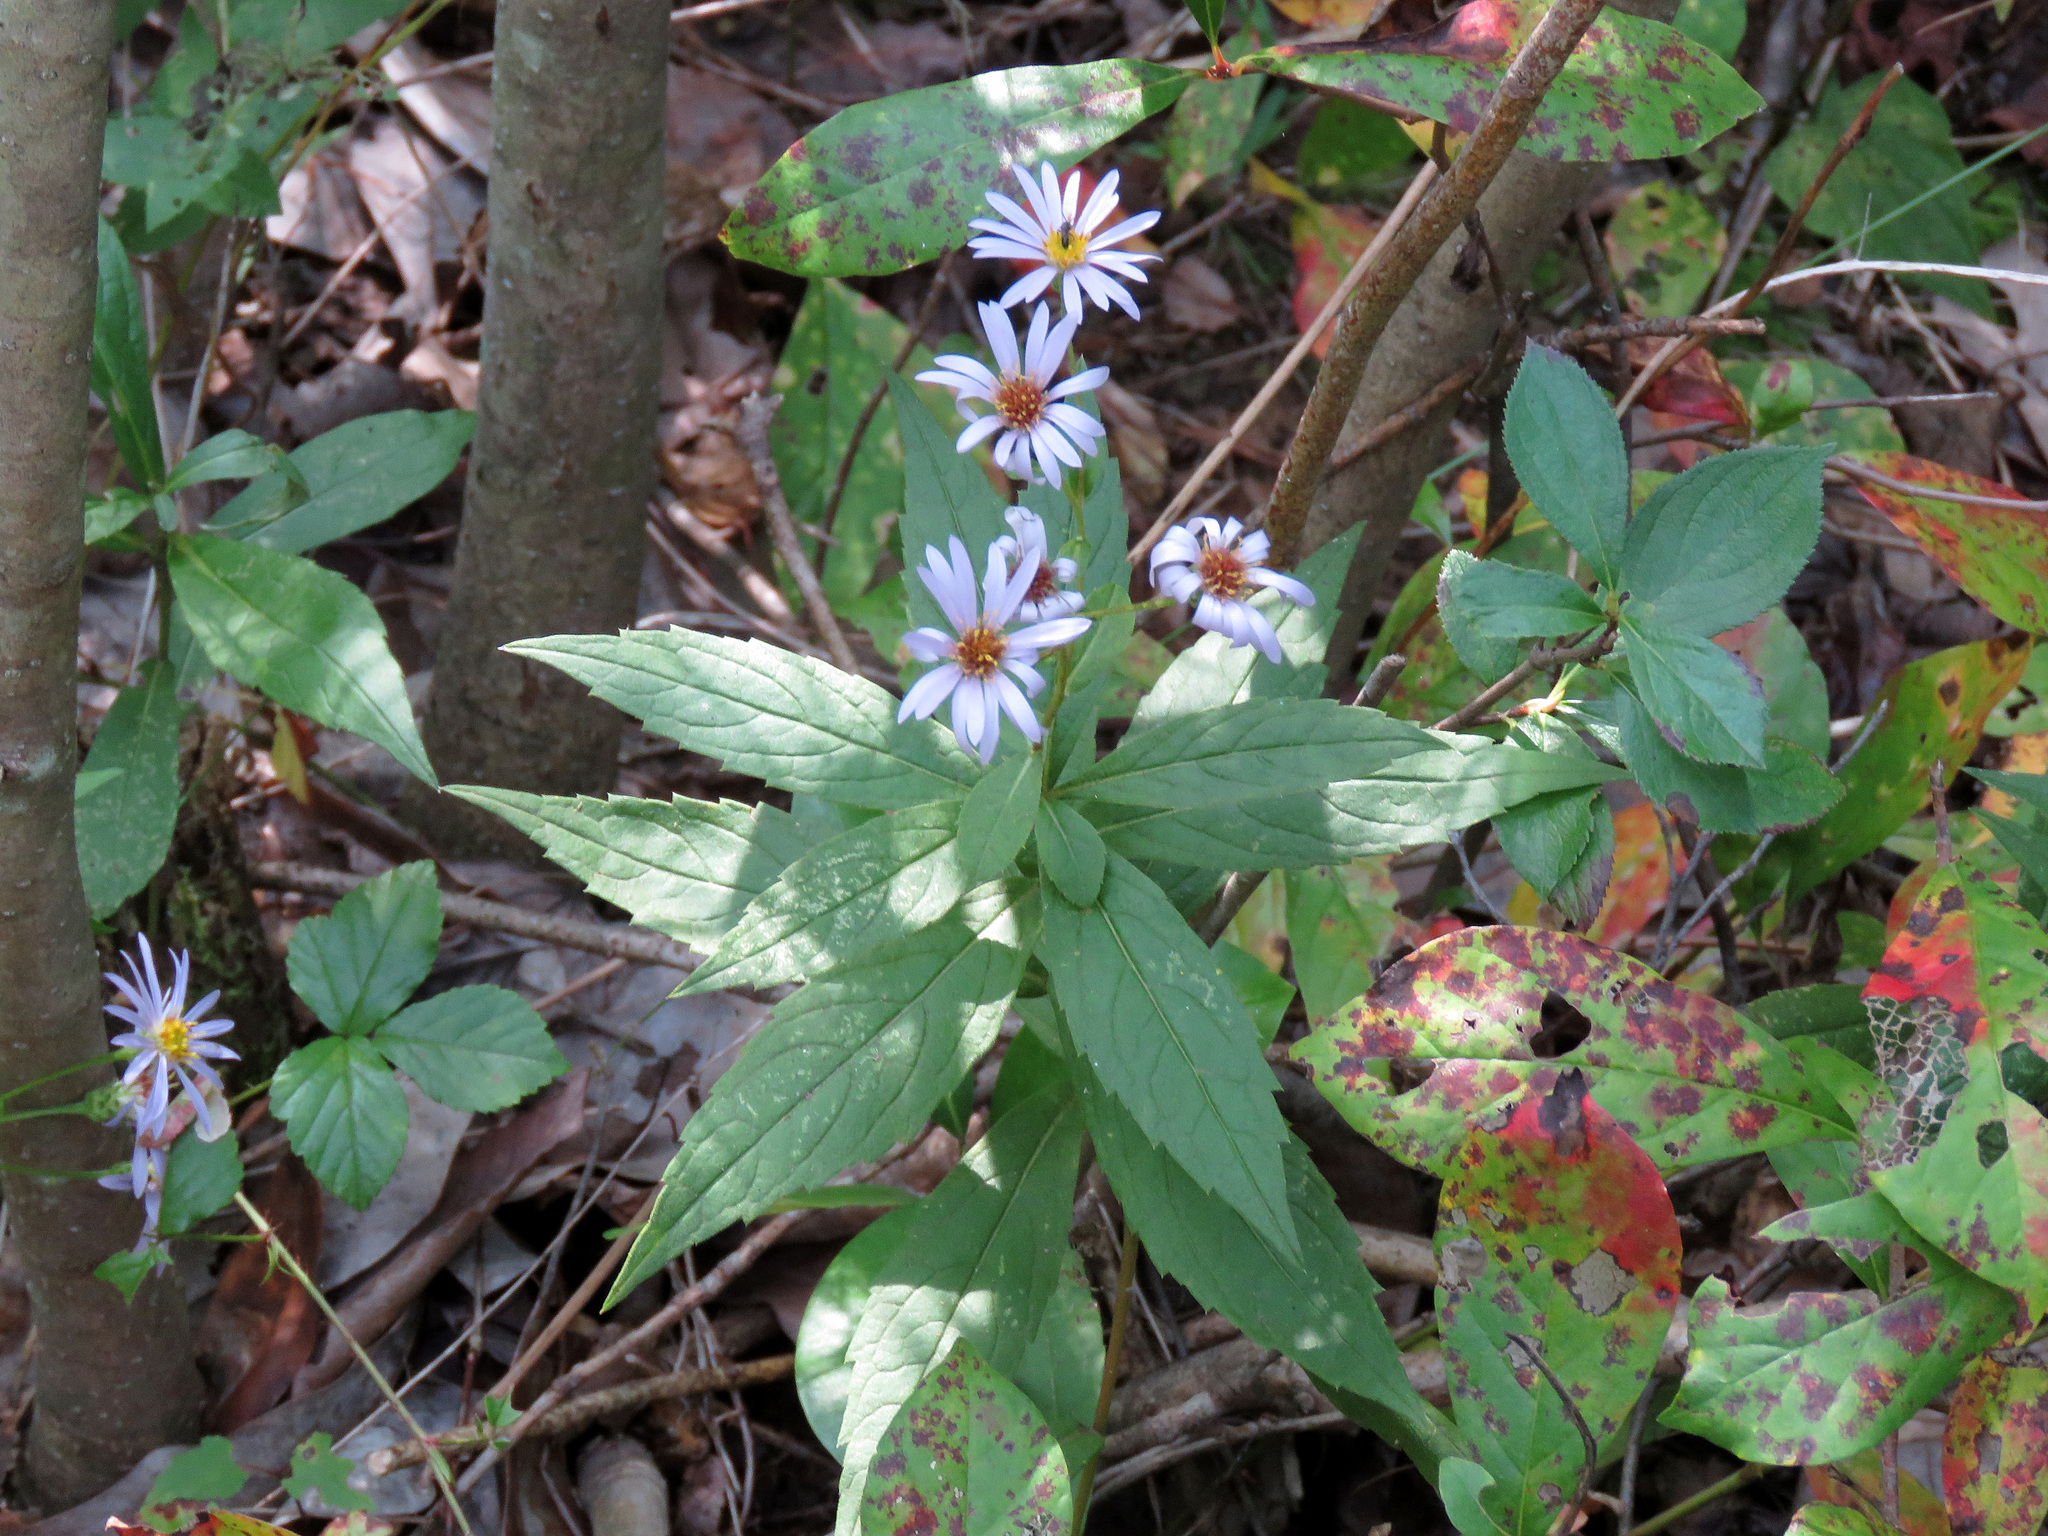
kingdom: Plantae
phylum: Tracheophyta
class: Magnoliopsida
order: Asterales
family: Asteraceae
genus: Eurybia
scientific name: Eurybia radula
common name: Low rough aster
